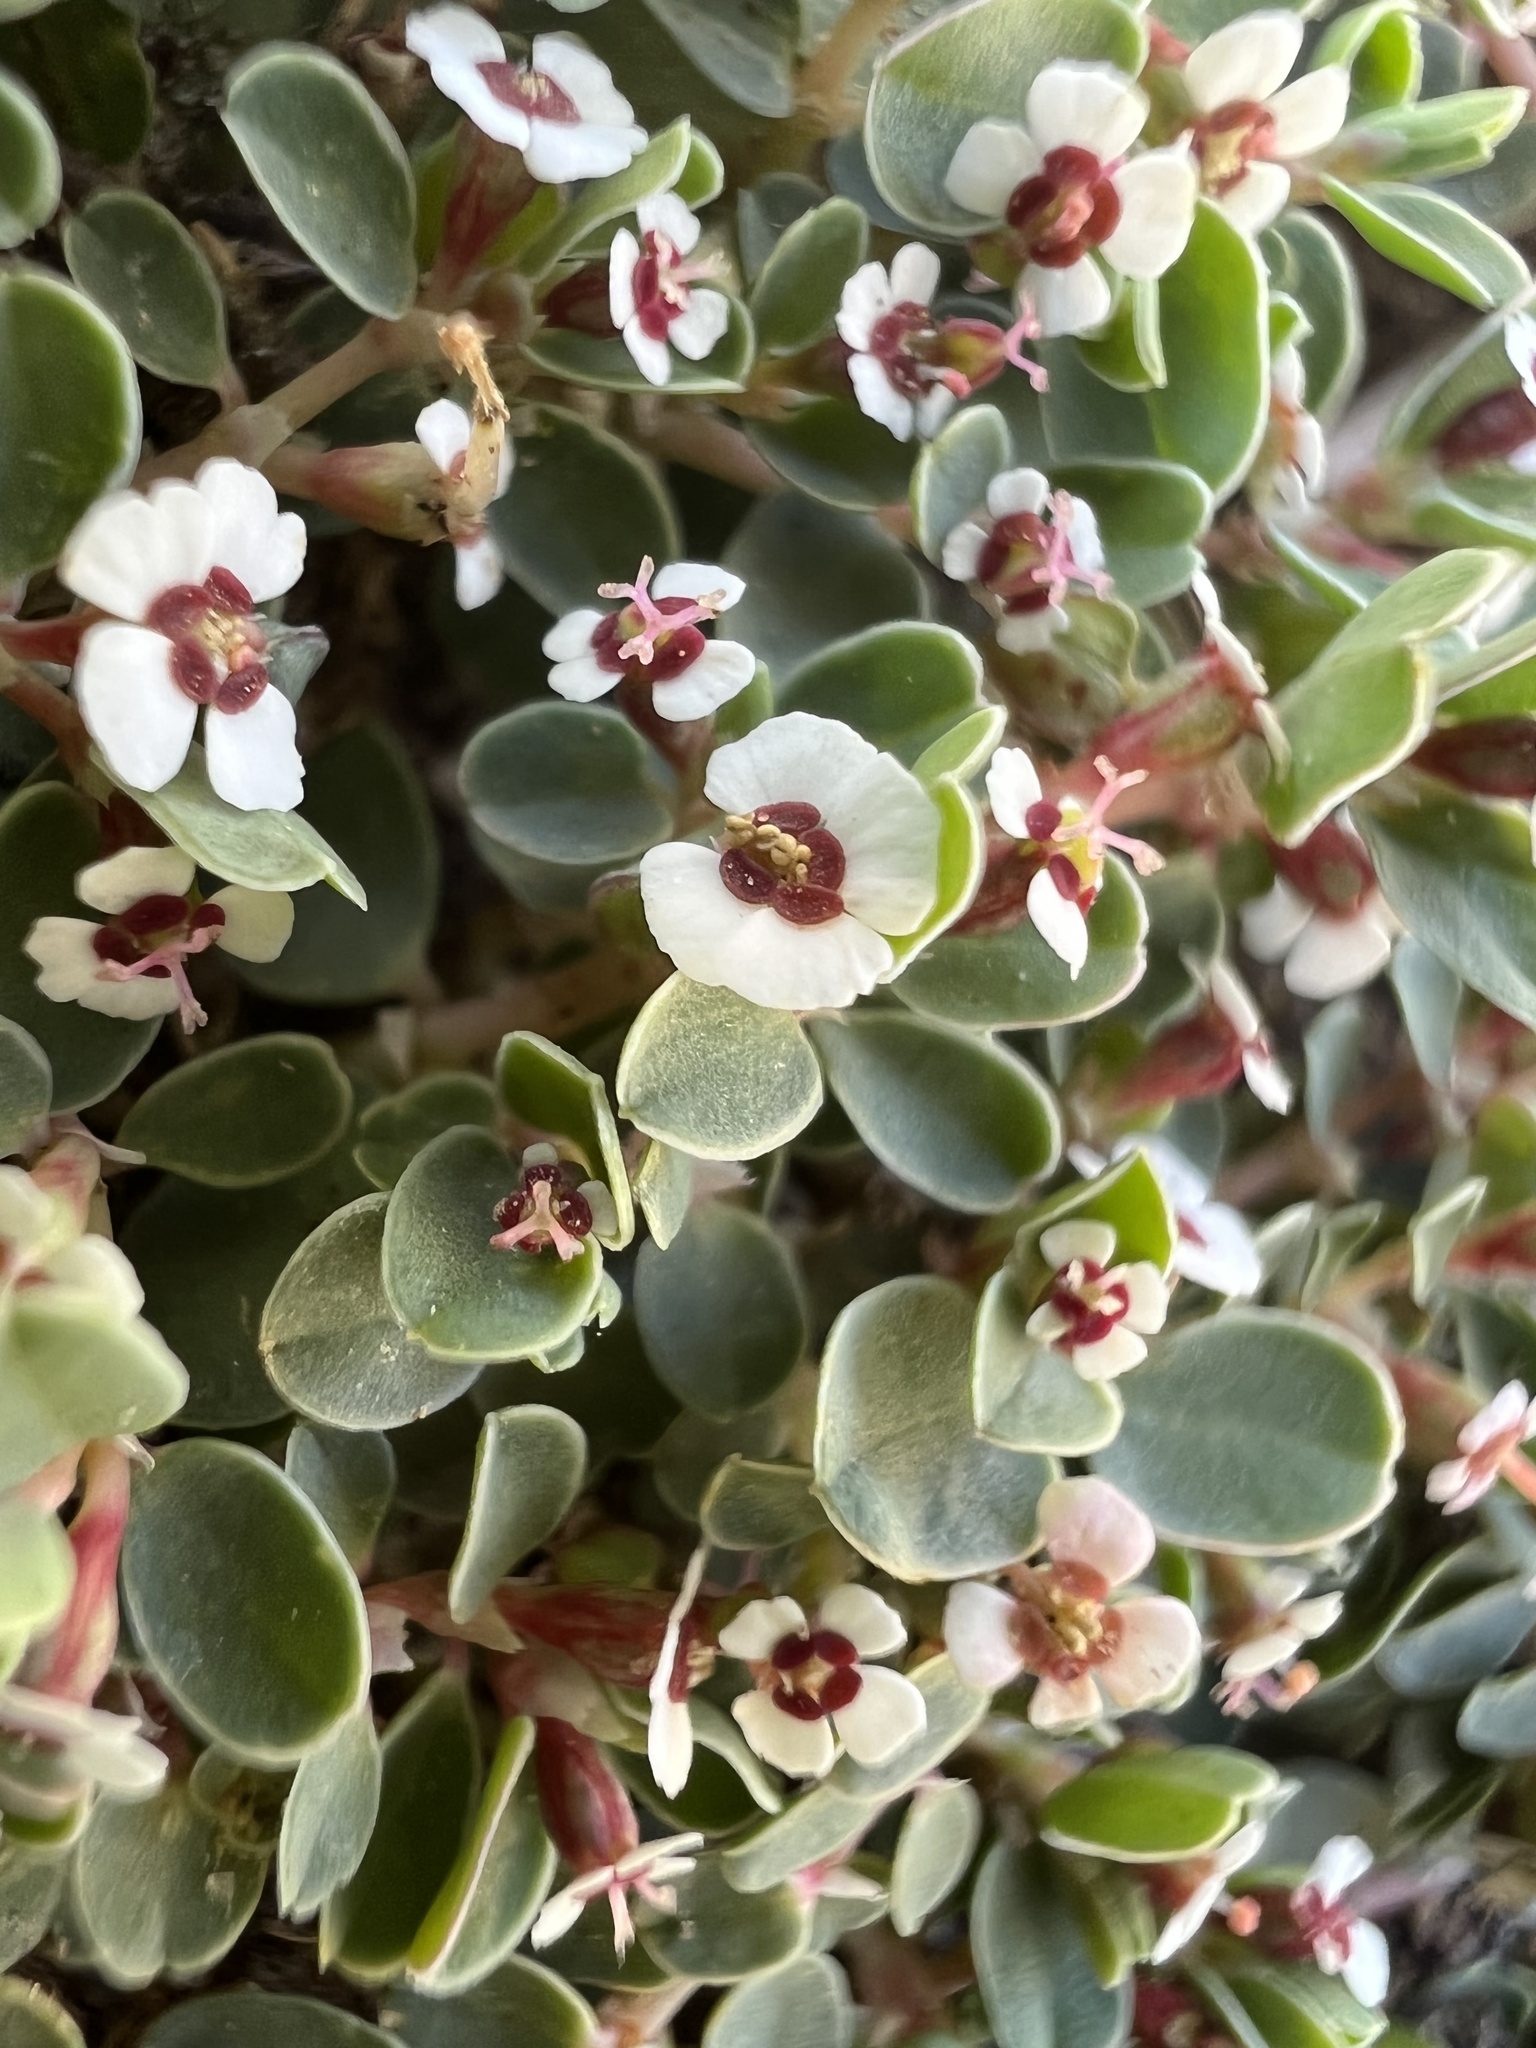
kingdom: Plantae
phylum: Tracheophyta
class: Magnoliopsida
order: Malpighiales
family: Euphorbiaceae
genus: Euphorbia
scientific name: Euphorbia albomarginata
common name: Whitemargin sandmat
